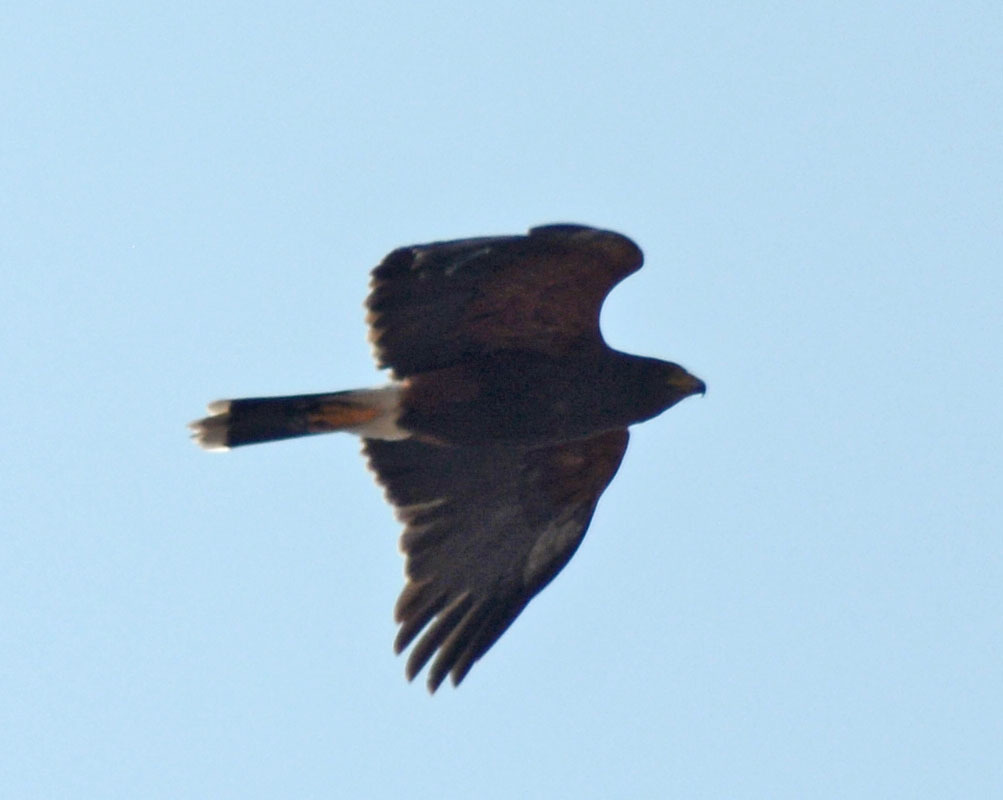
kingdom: Animalia
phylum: Chordata
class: Aves
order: Accipitriformes
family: Accipitridae
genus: Parabuteo
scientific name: Parabuteo unicinctus
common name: Harris's hawk
